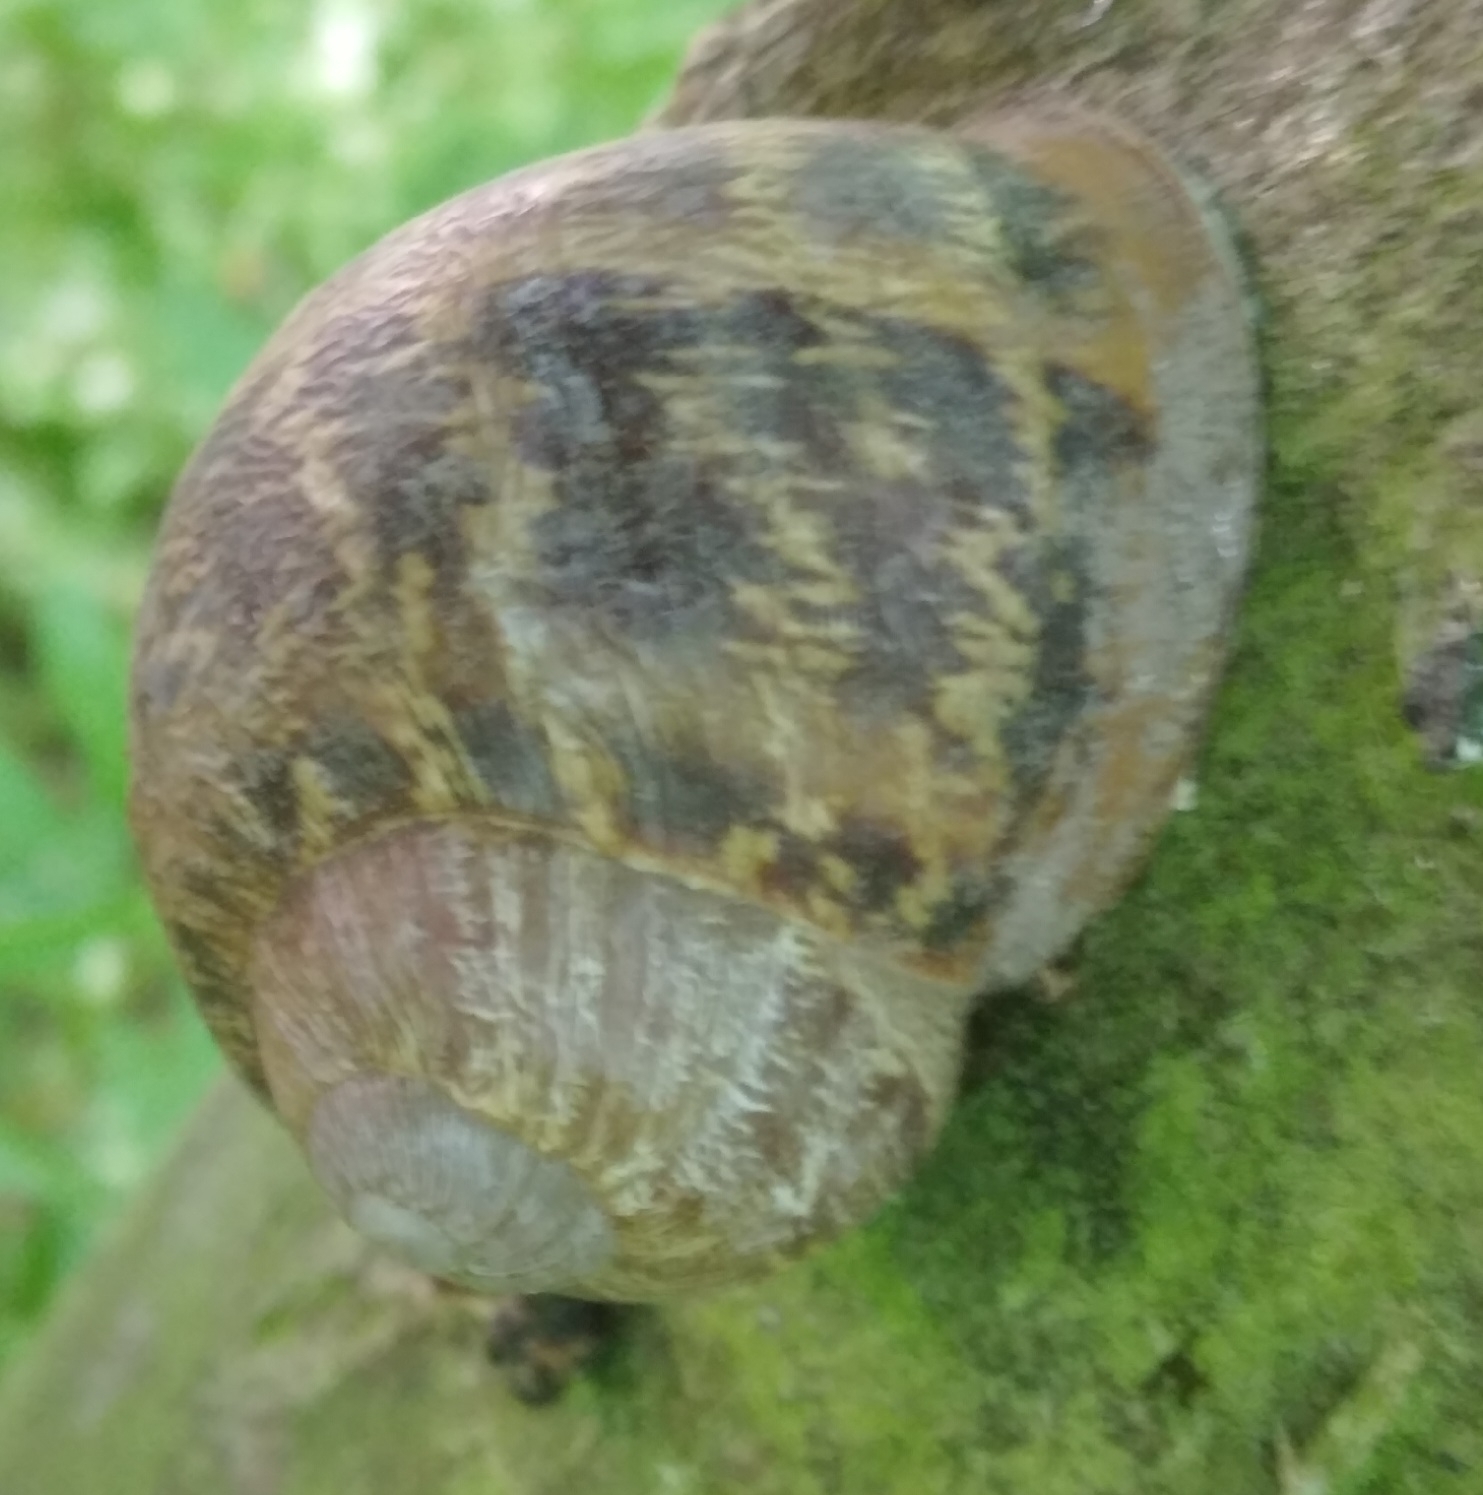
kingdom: Animalia
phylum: Mollusca
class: Gastropoda
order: Stylommatophora
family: Helicidae
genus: Cornu
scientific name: Cornu aspersum
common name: Brown garden snail
